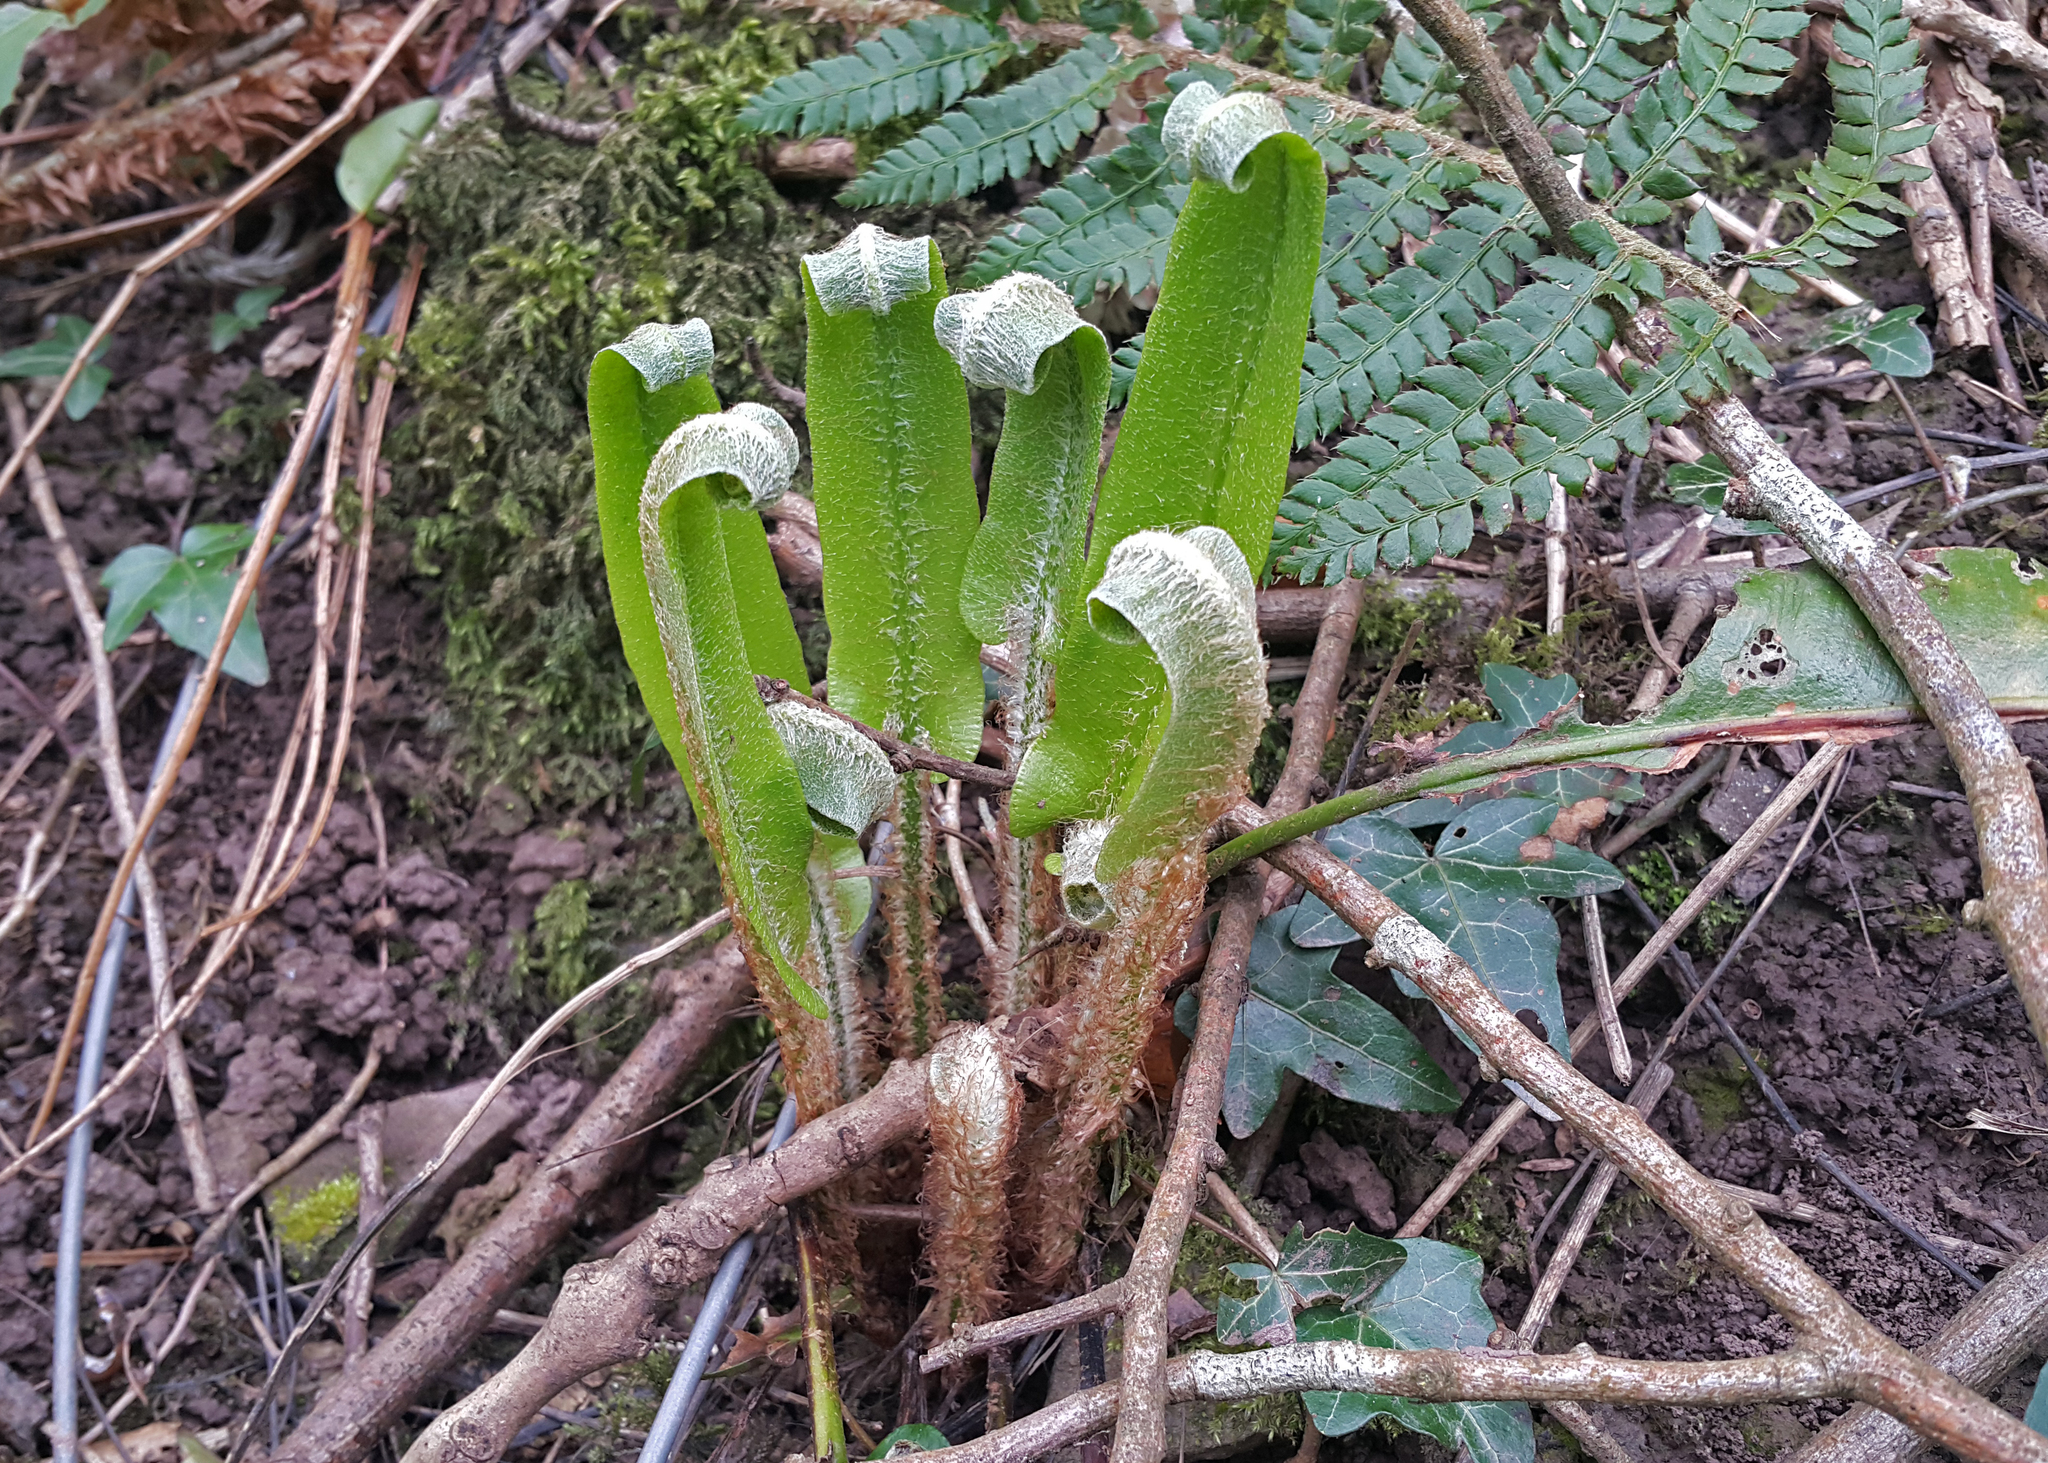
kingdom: Plantae
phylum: Tracheophyta
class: Polypodiopsida
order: Polypodiales
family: Aspleniaceae
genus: Asplenium
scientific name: Asplenium scolopendrium
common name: Hart's-tongue fern
